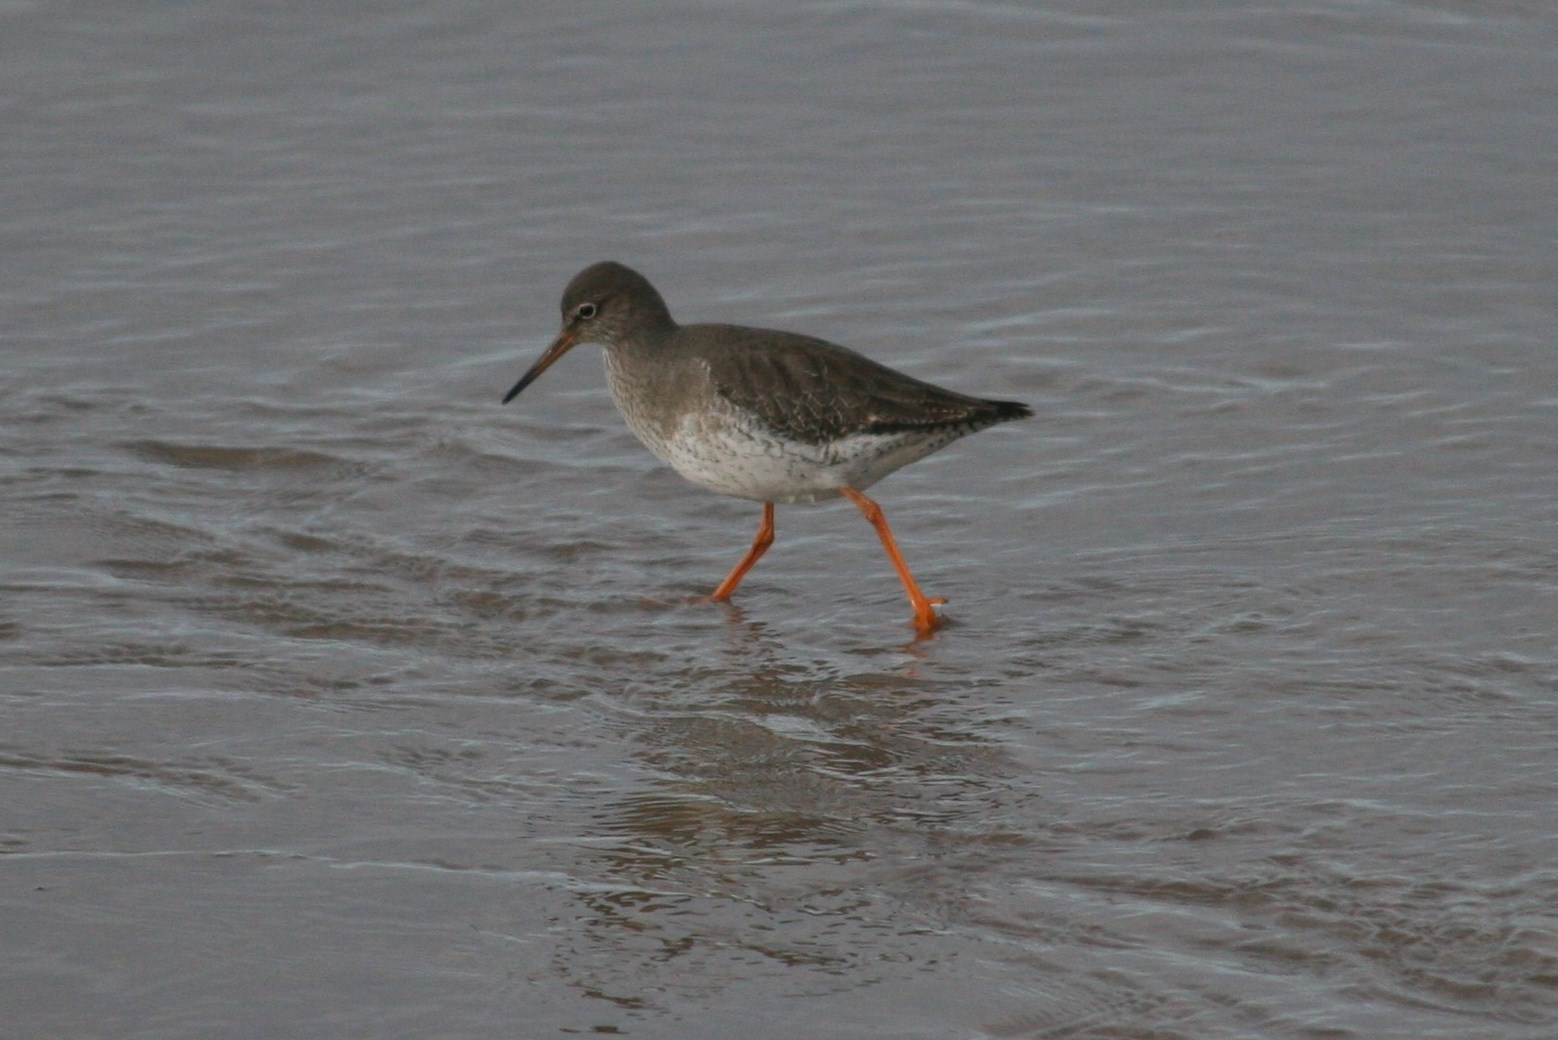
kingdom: Animalia
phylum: Chordata
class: Aves
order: Charadriiformes
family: Scolopacidae
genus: Tringa
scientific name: Tringa totanus
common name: Common redshank
